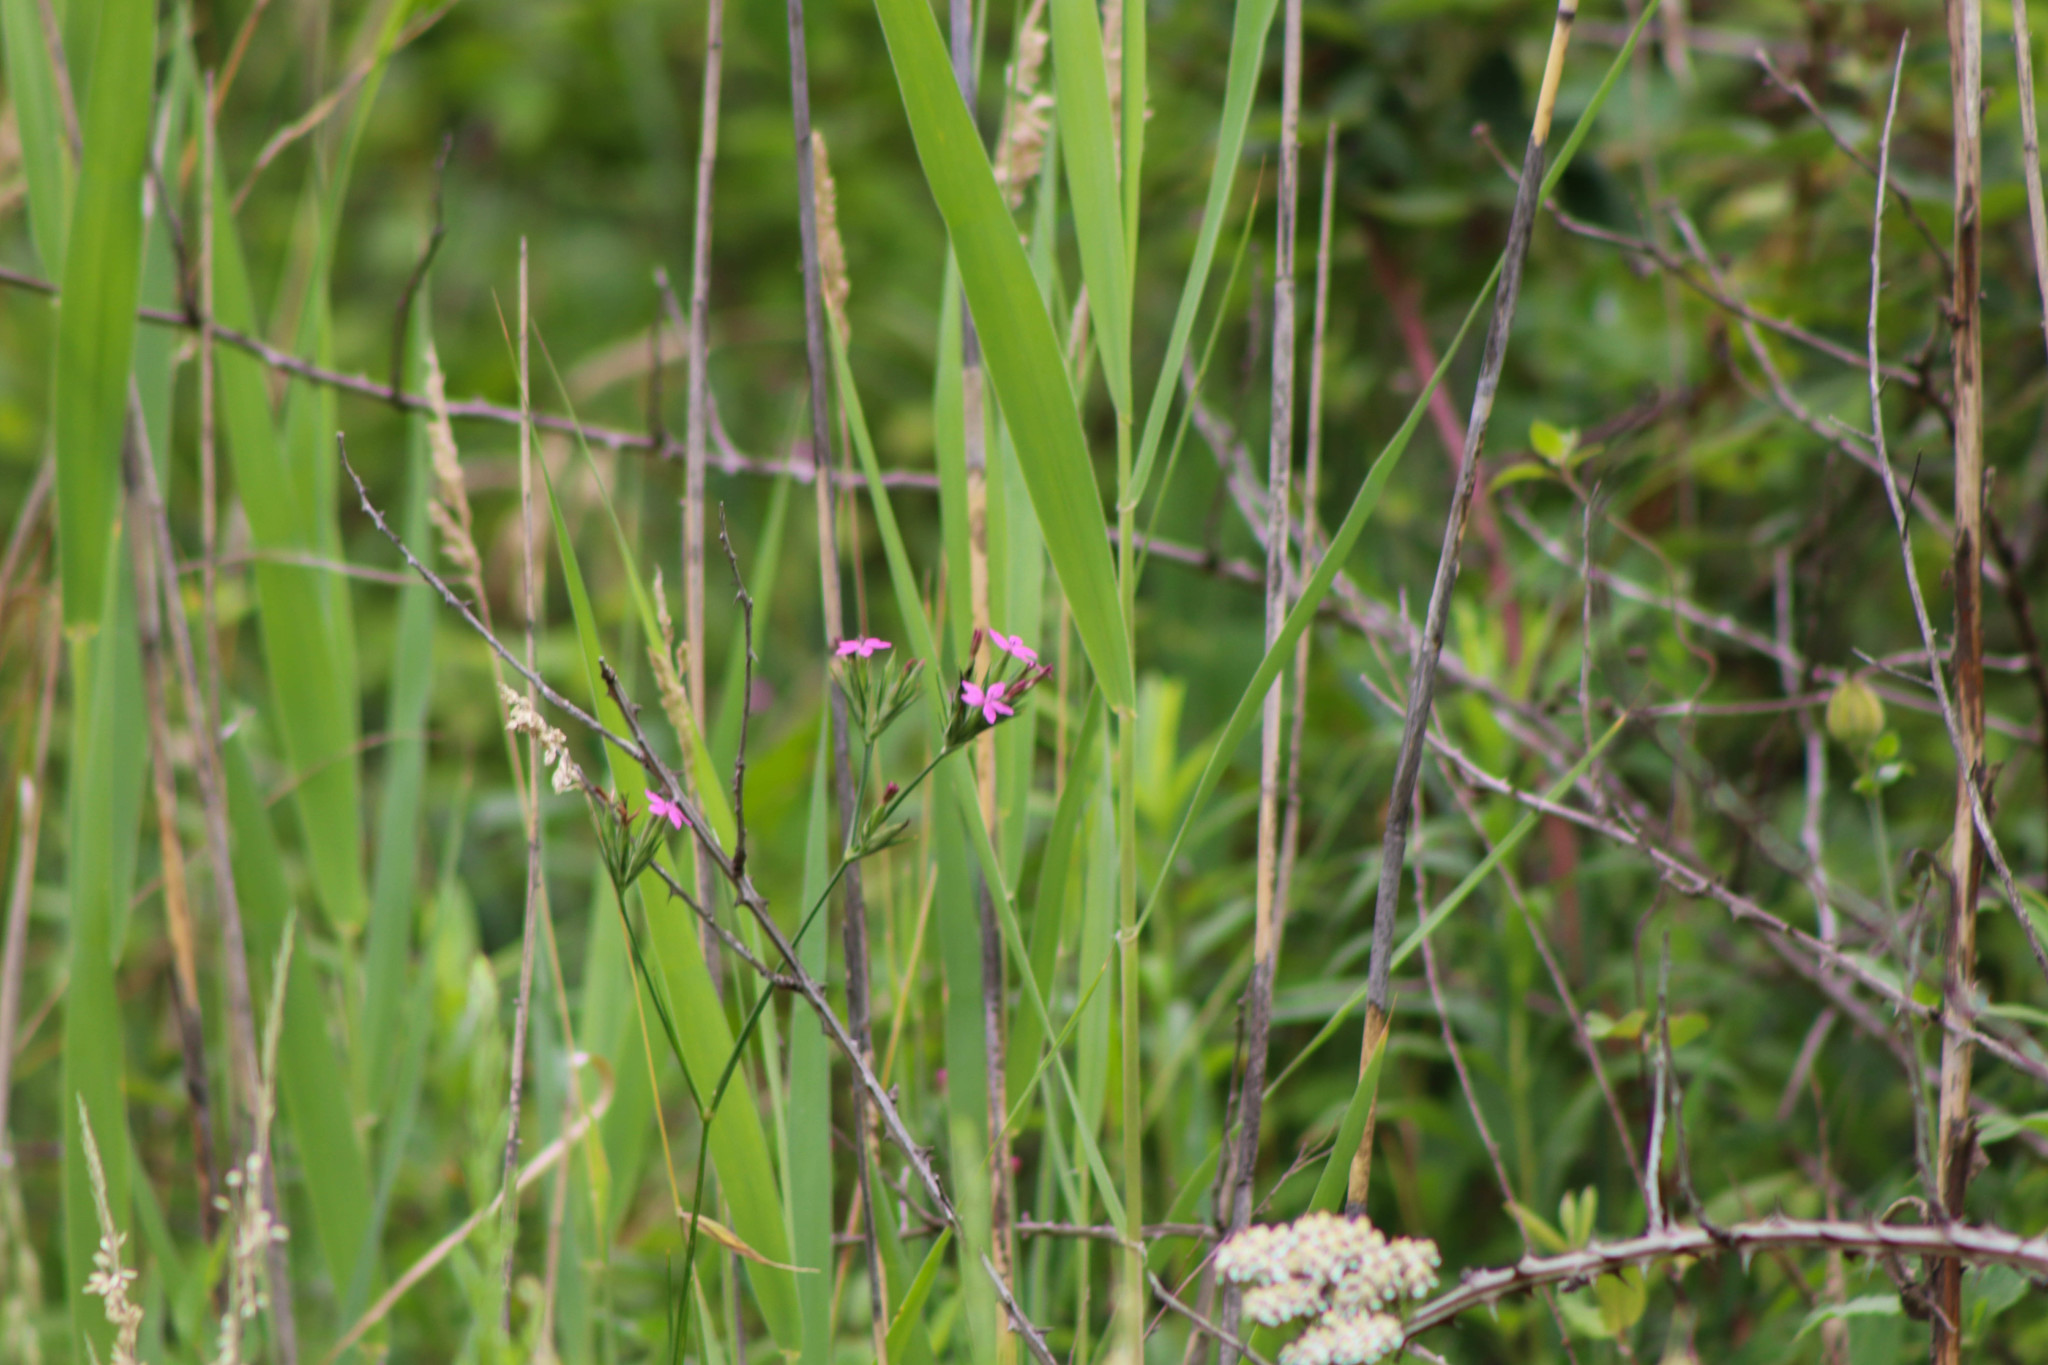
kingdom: Plantae
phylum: Tracheophyta
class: Magnoliopsida
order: Caryophyllales
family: Caryophyllaceae
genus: Dianthus
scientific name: Dianthus armeria
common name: Deptford pink
